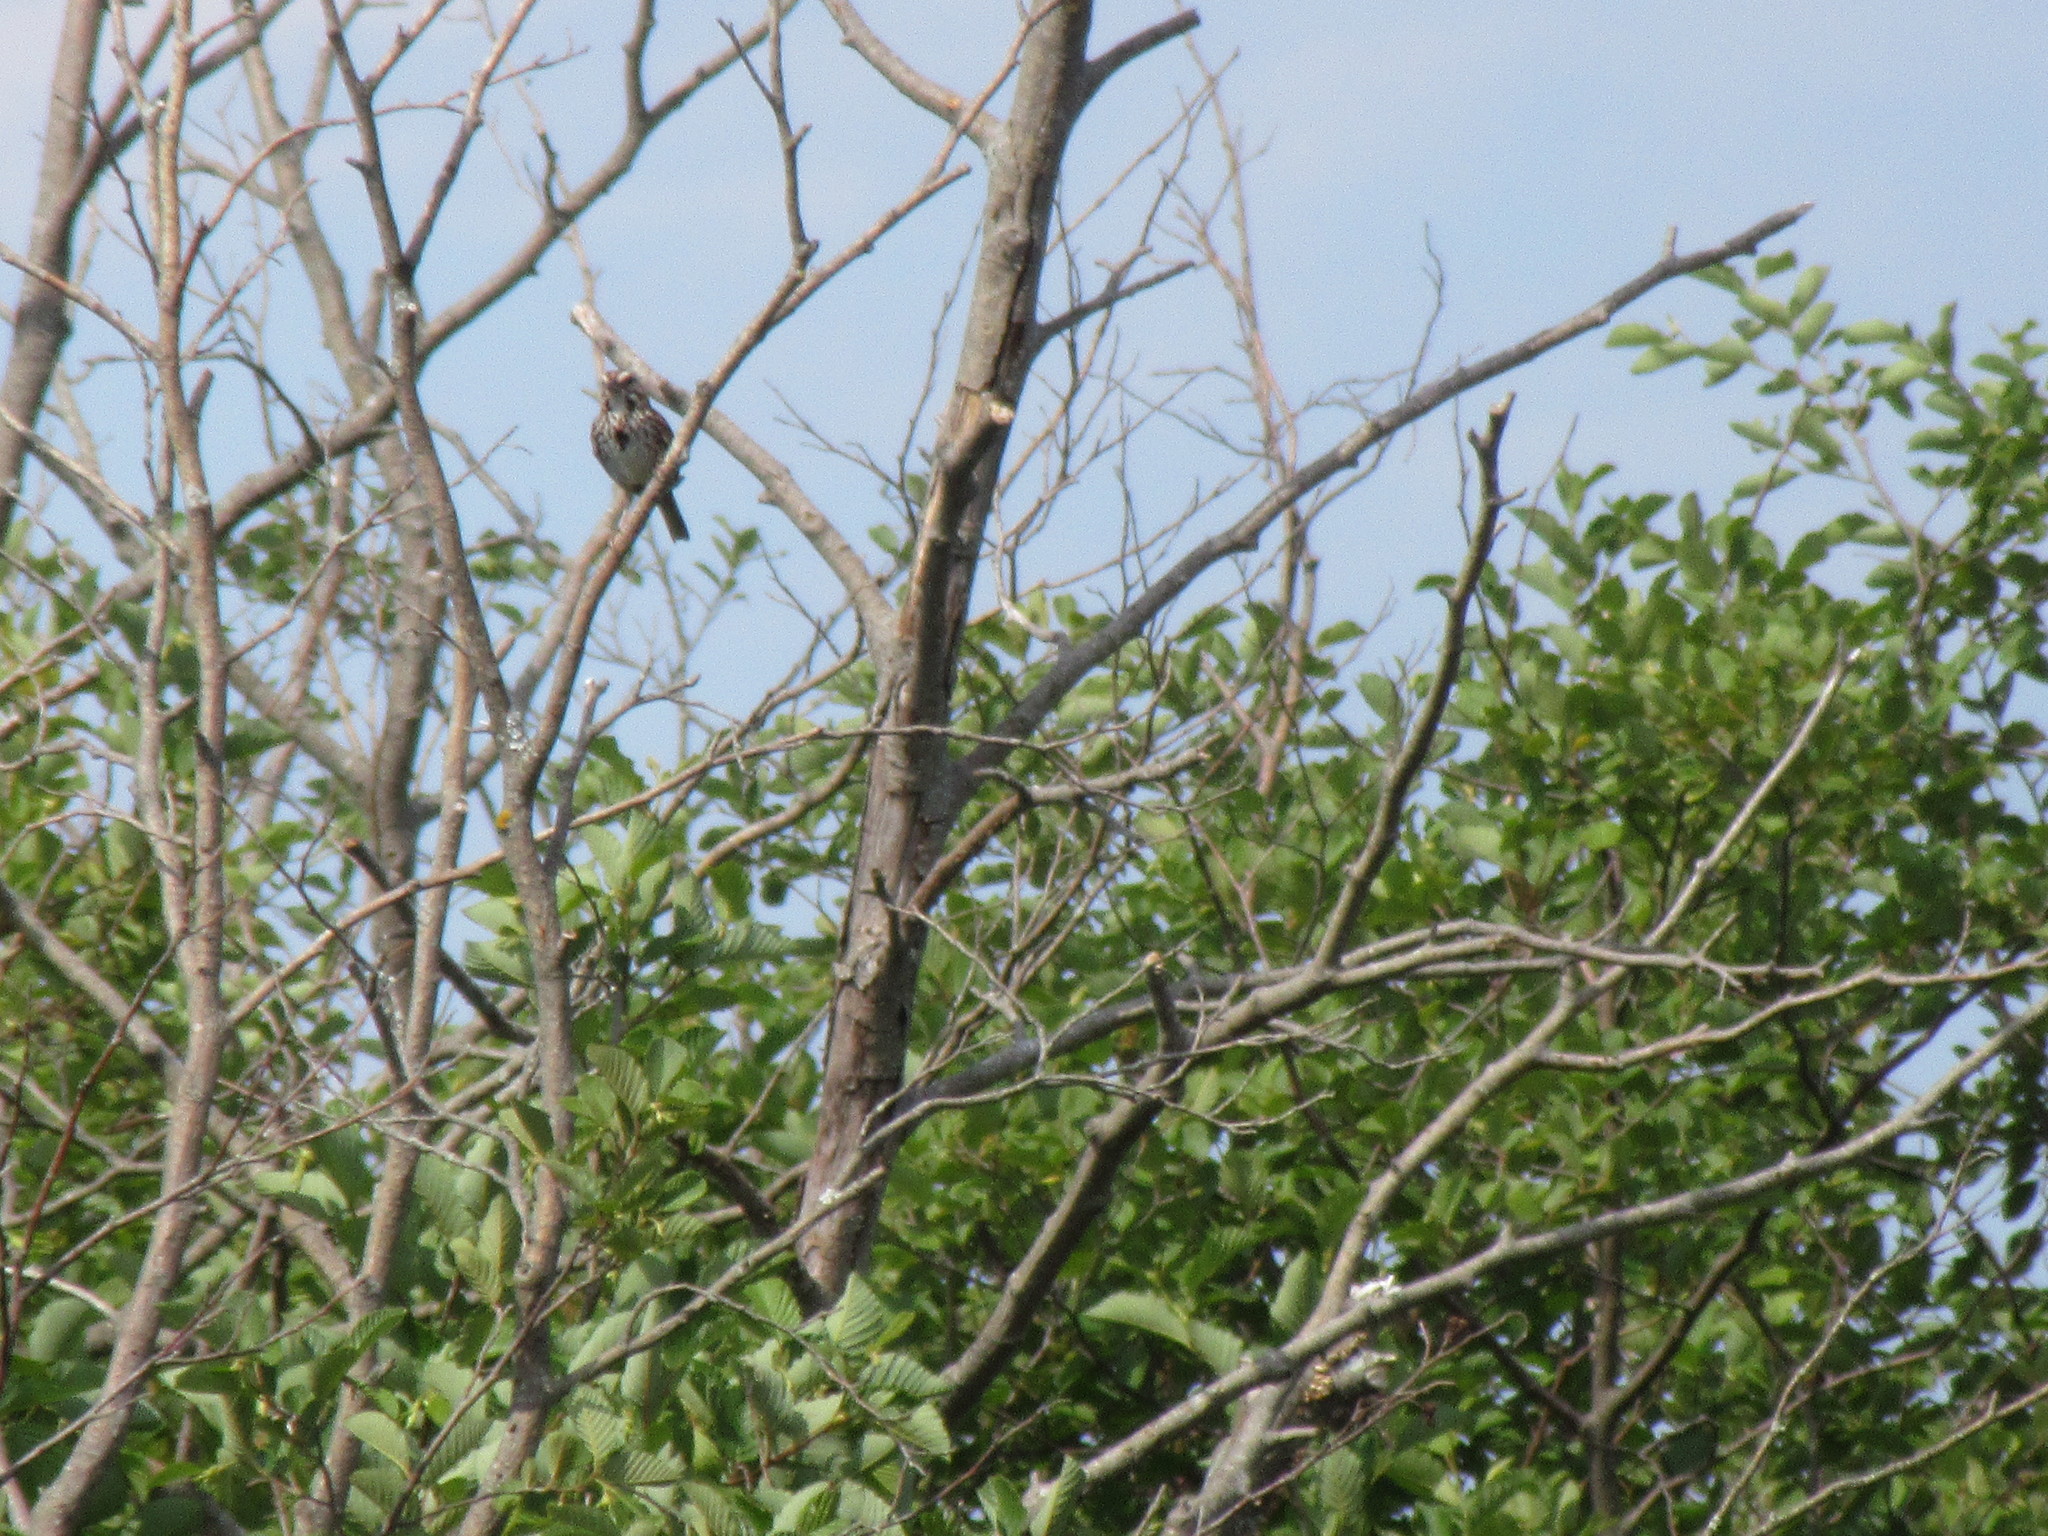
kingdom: Animalia
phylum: Chordata
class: Aves
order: Passeriformes
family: Passerellidae
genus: Melospiza
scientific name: Melospiza melodia
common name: Song sparrow
